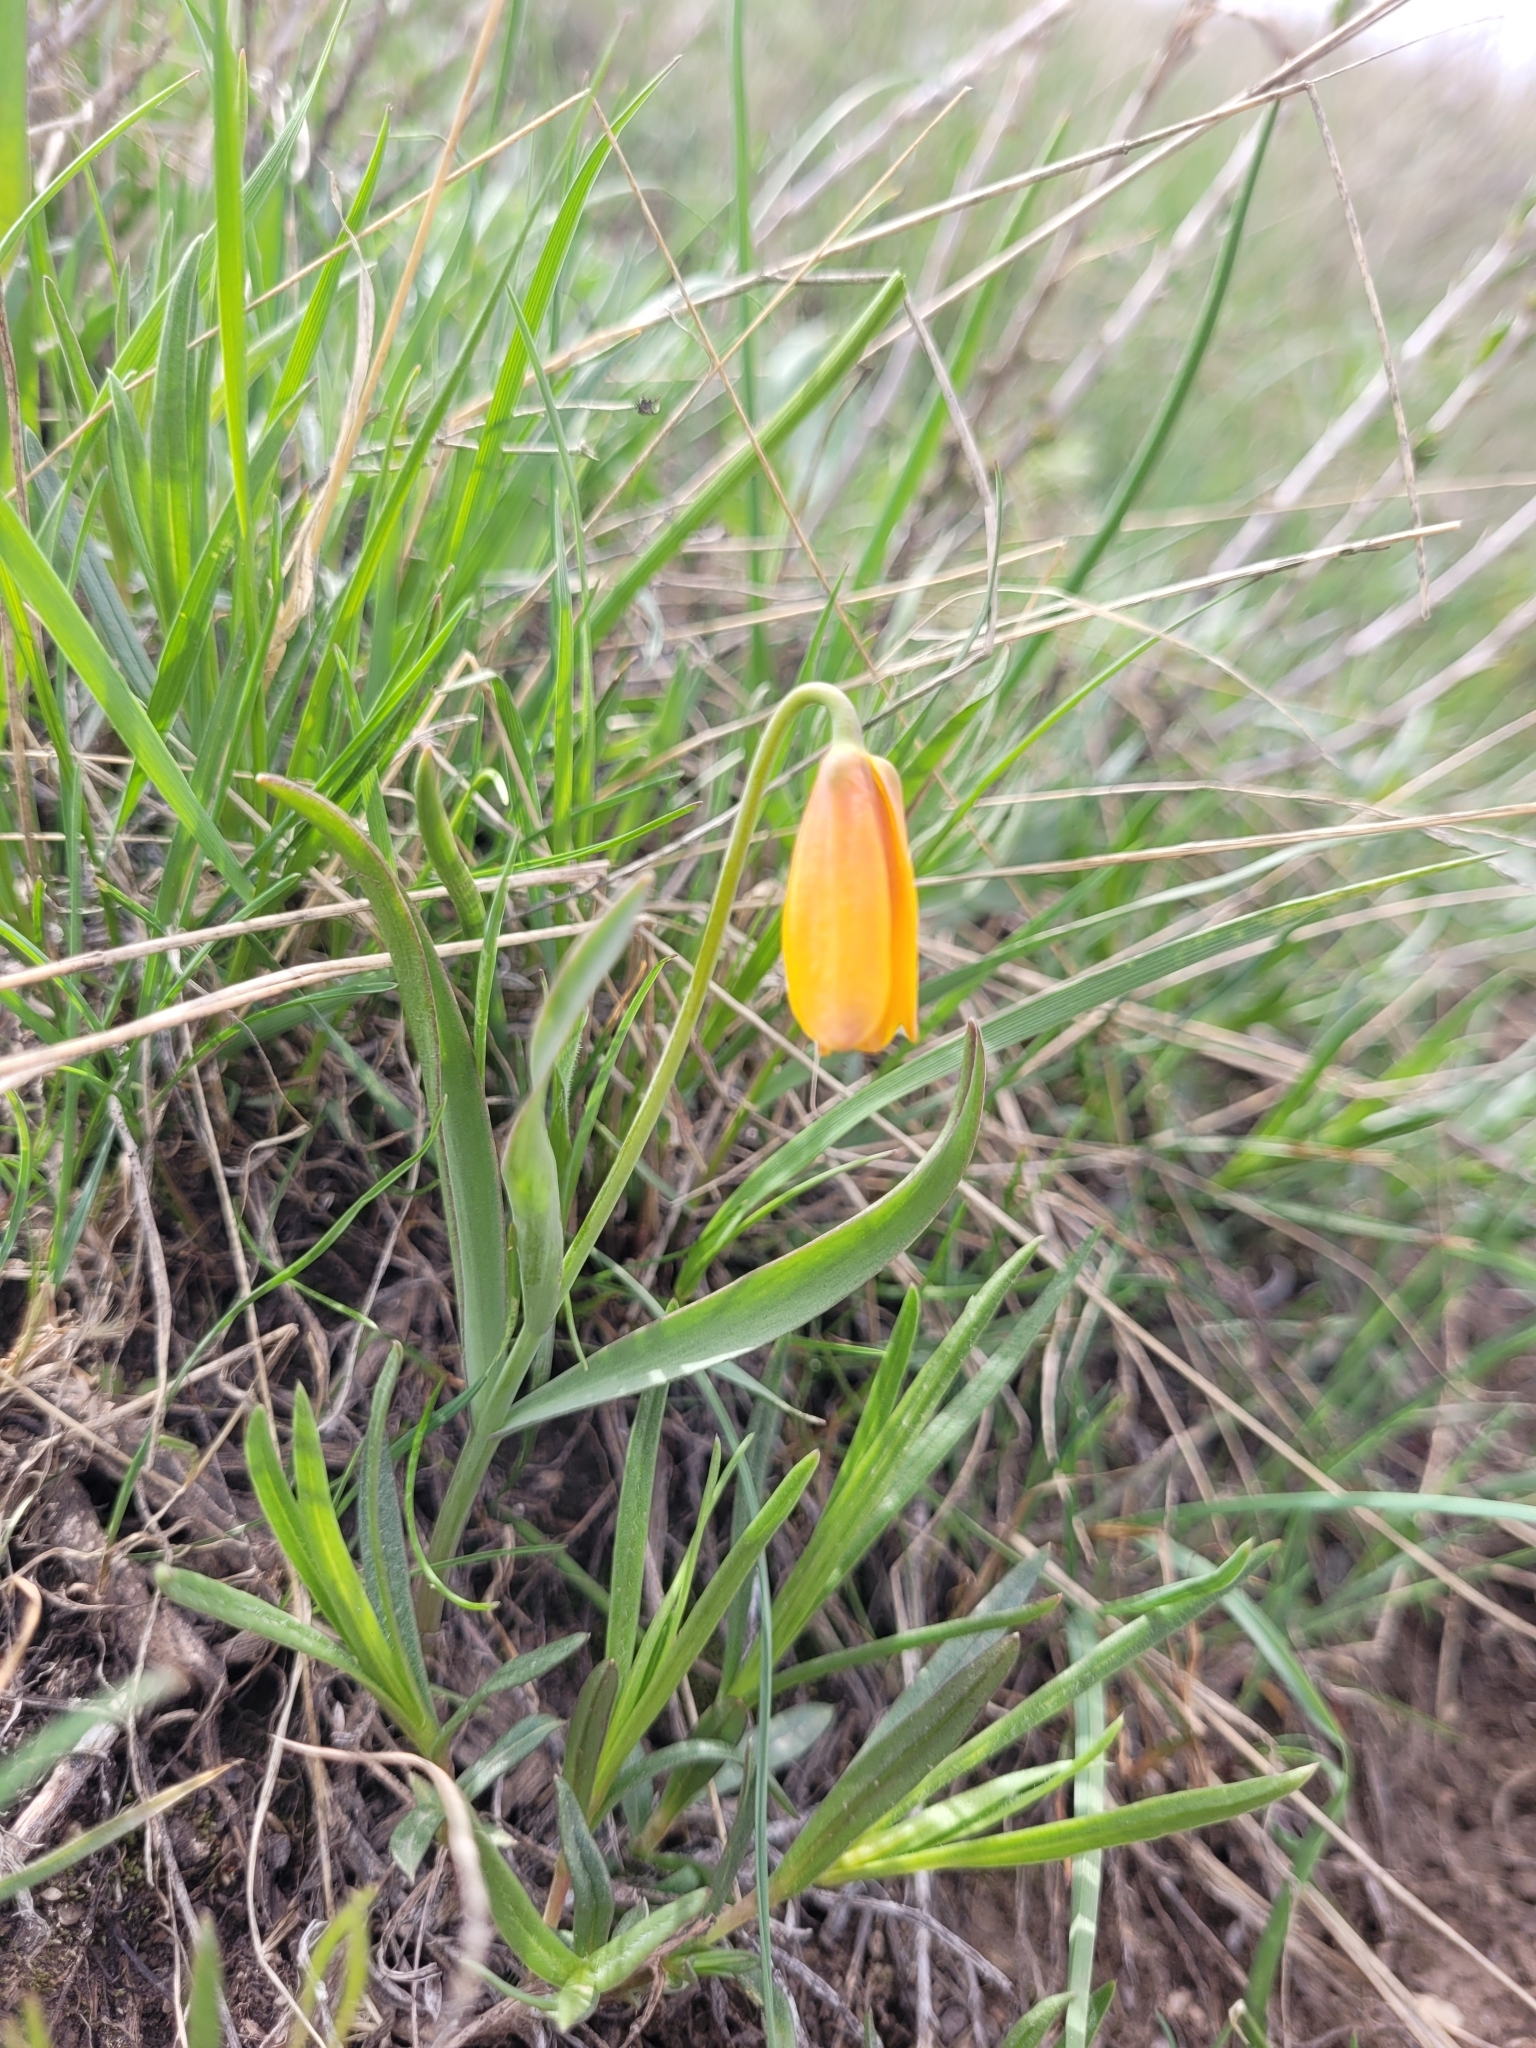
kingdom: Plantae
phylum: Tracheophyta
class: Liliopsida
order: Liliales
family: Liliaceae
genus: Fritillaria
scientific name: Fritillaria pudica
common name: Yellow fritillary
